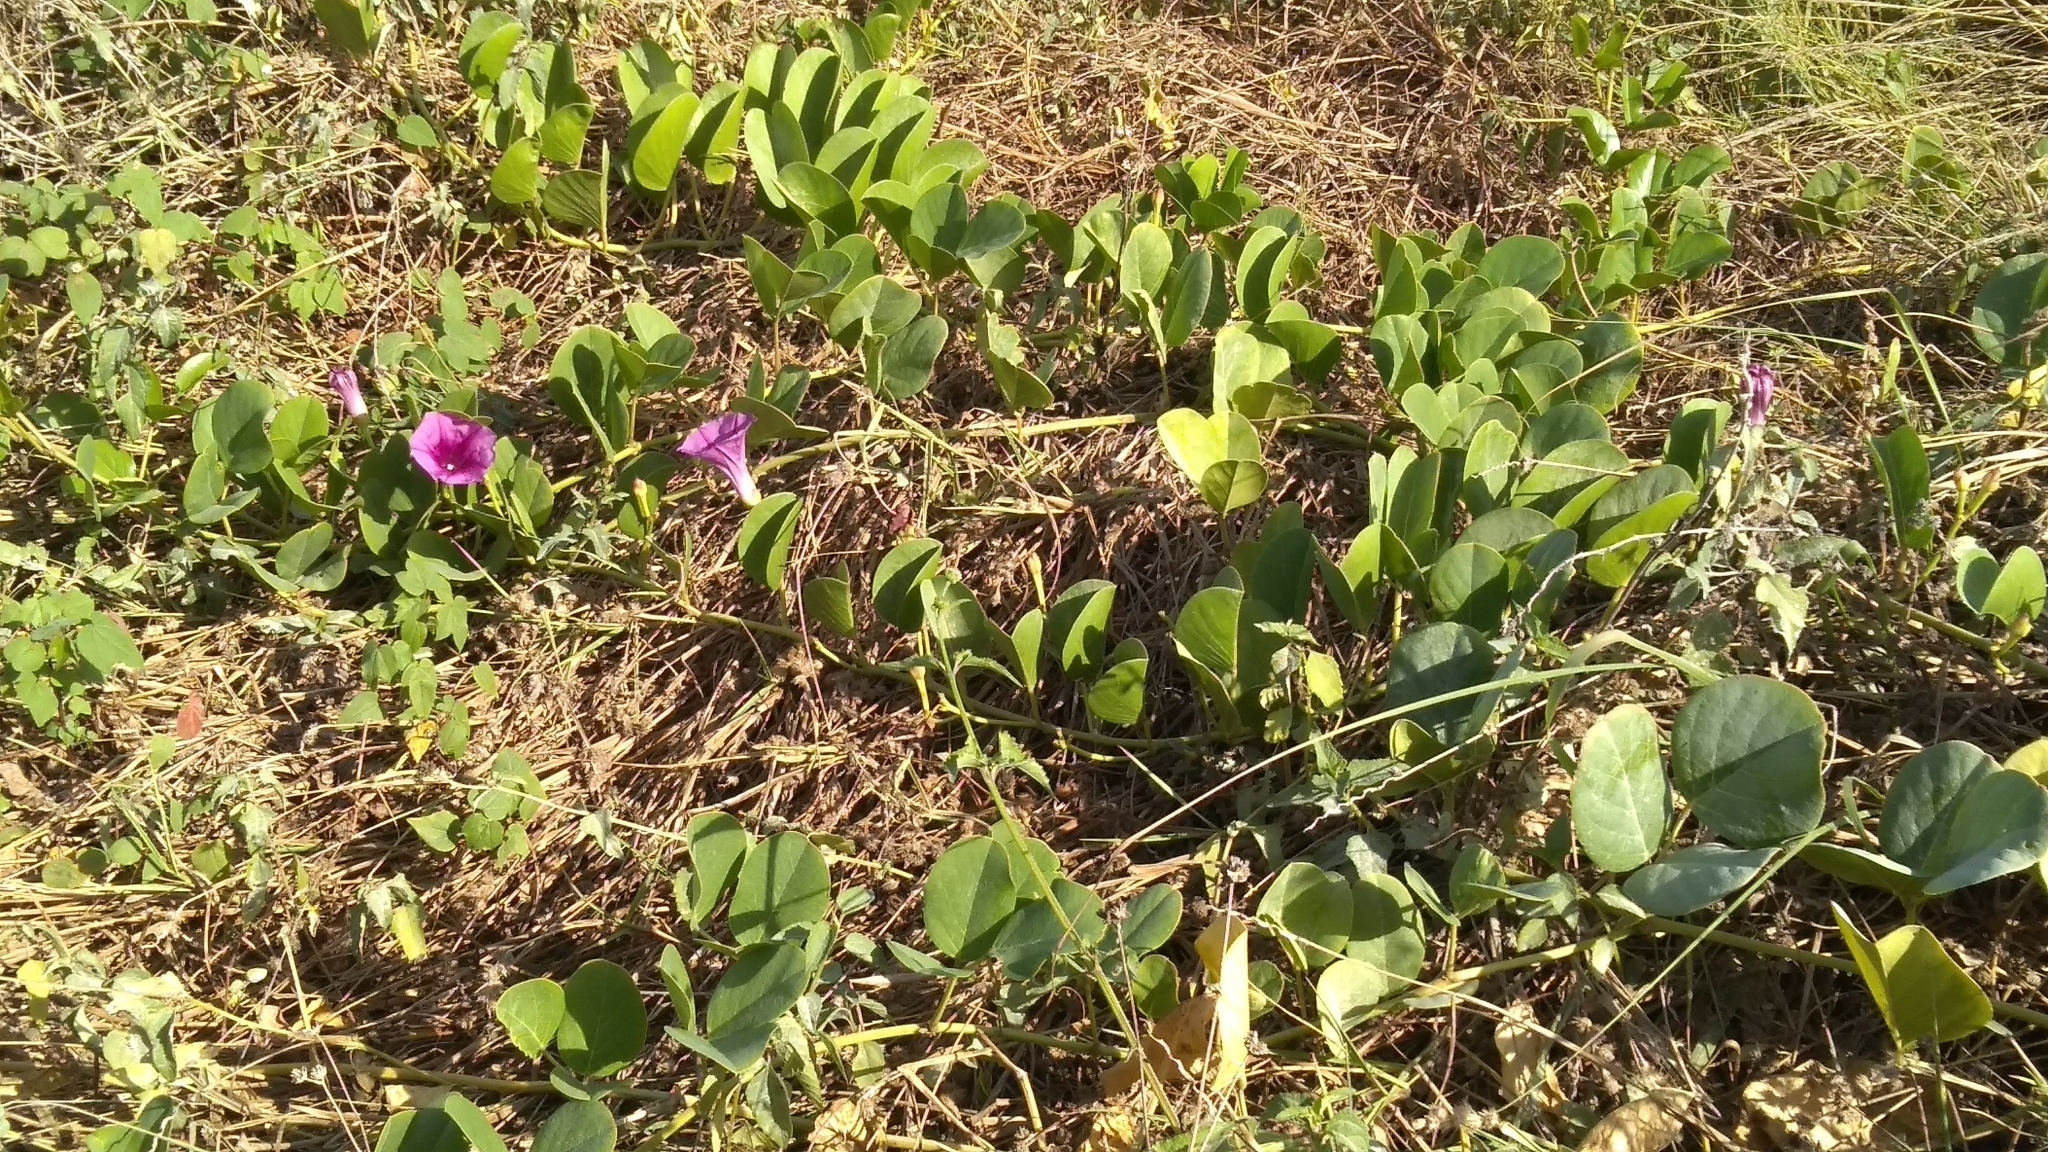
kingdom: Plantae
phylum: Tracheophyta
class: Magnoliopsida
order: Solanales
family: Convolvulaceae
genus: Ipomoea
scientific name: Ipomoea pes-caprae
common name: Beach morning glory
